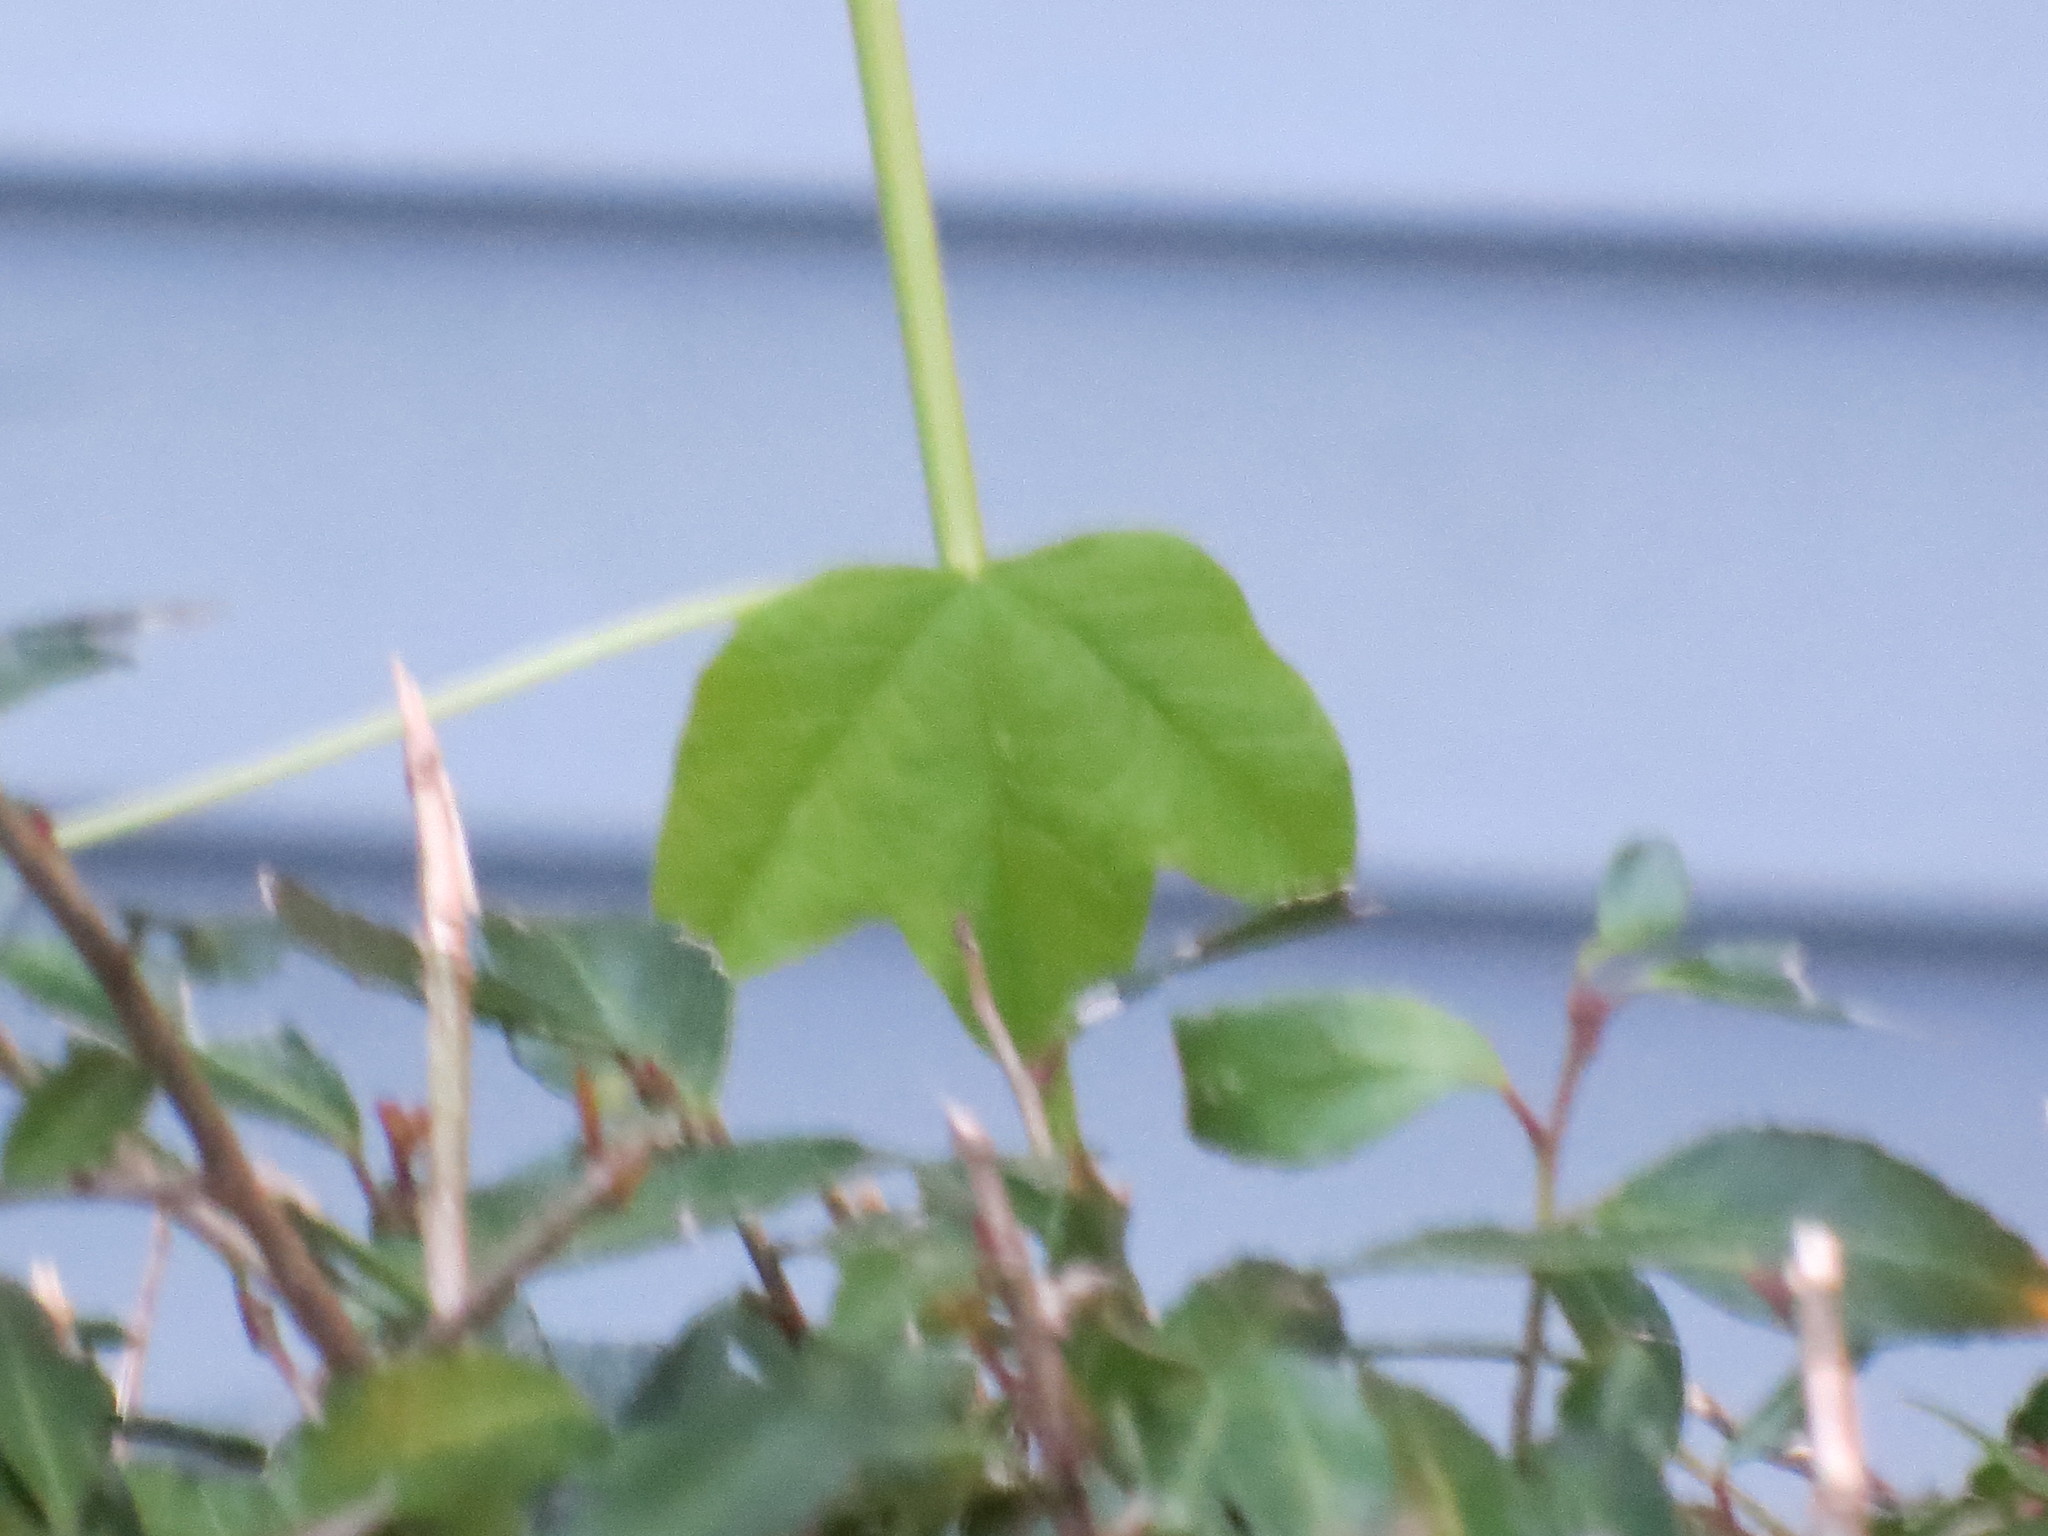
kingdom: Plantae
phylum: Tracheophyta
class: Magnoliopsida
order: Malpighiales
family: Passifloraceae
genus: Passiflora
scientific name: Passiflora lutea
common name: Yellow passionflower
